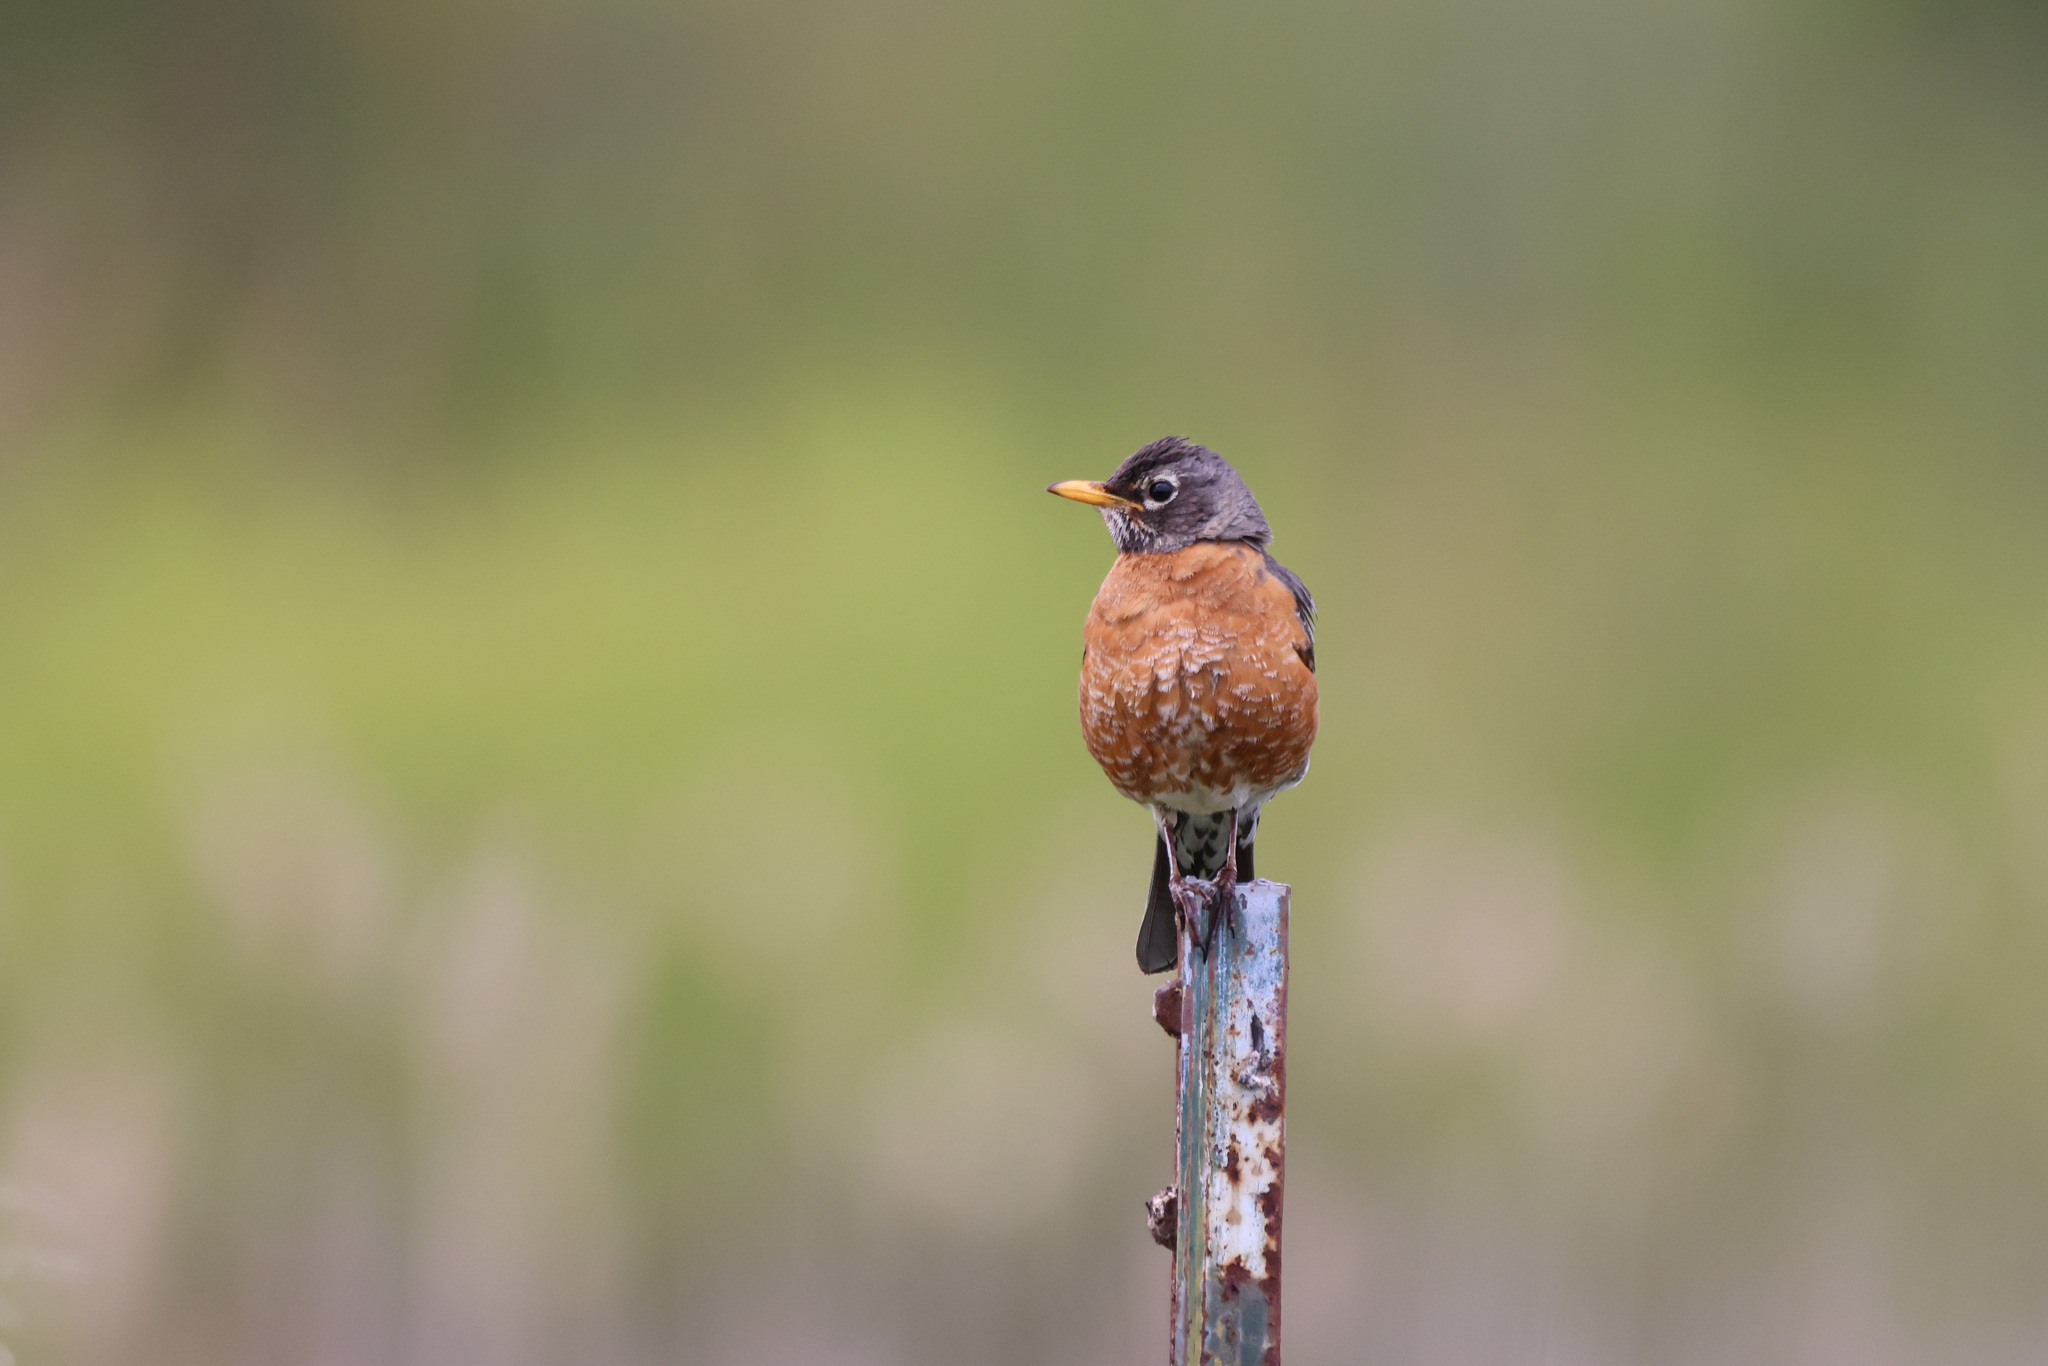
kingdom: Animalia
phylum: Chordata
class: Aves
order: Passeriformes
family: Turdidae
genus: Turdus
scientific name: Turdus migratorius
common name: American robin
